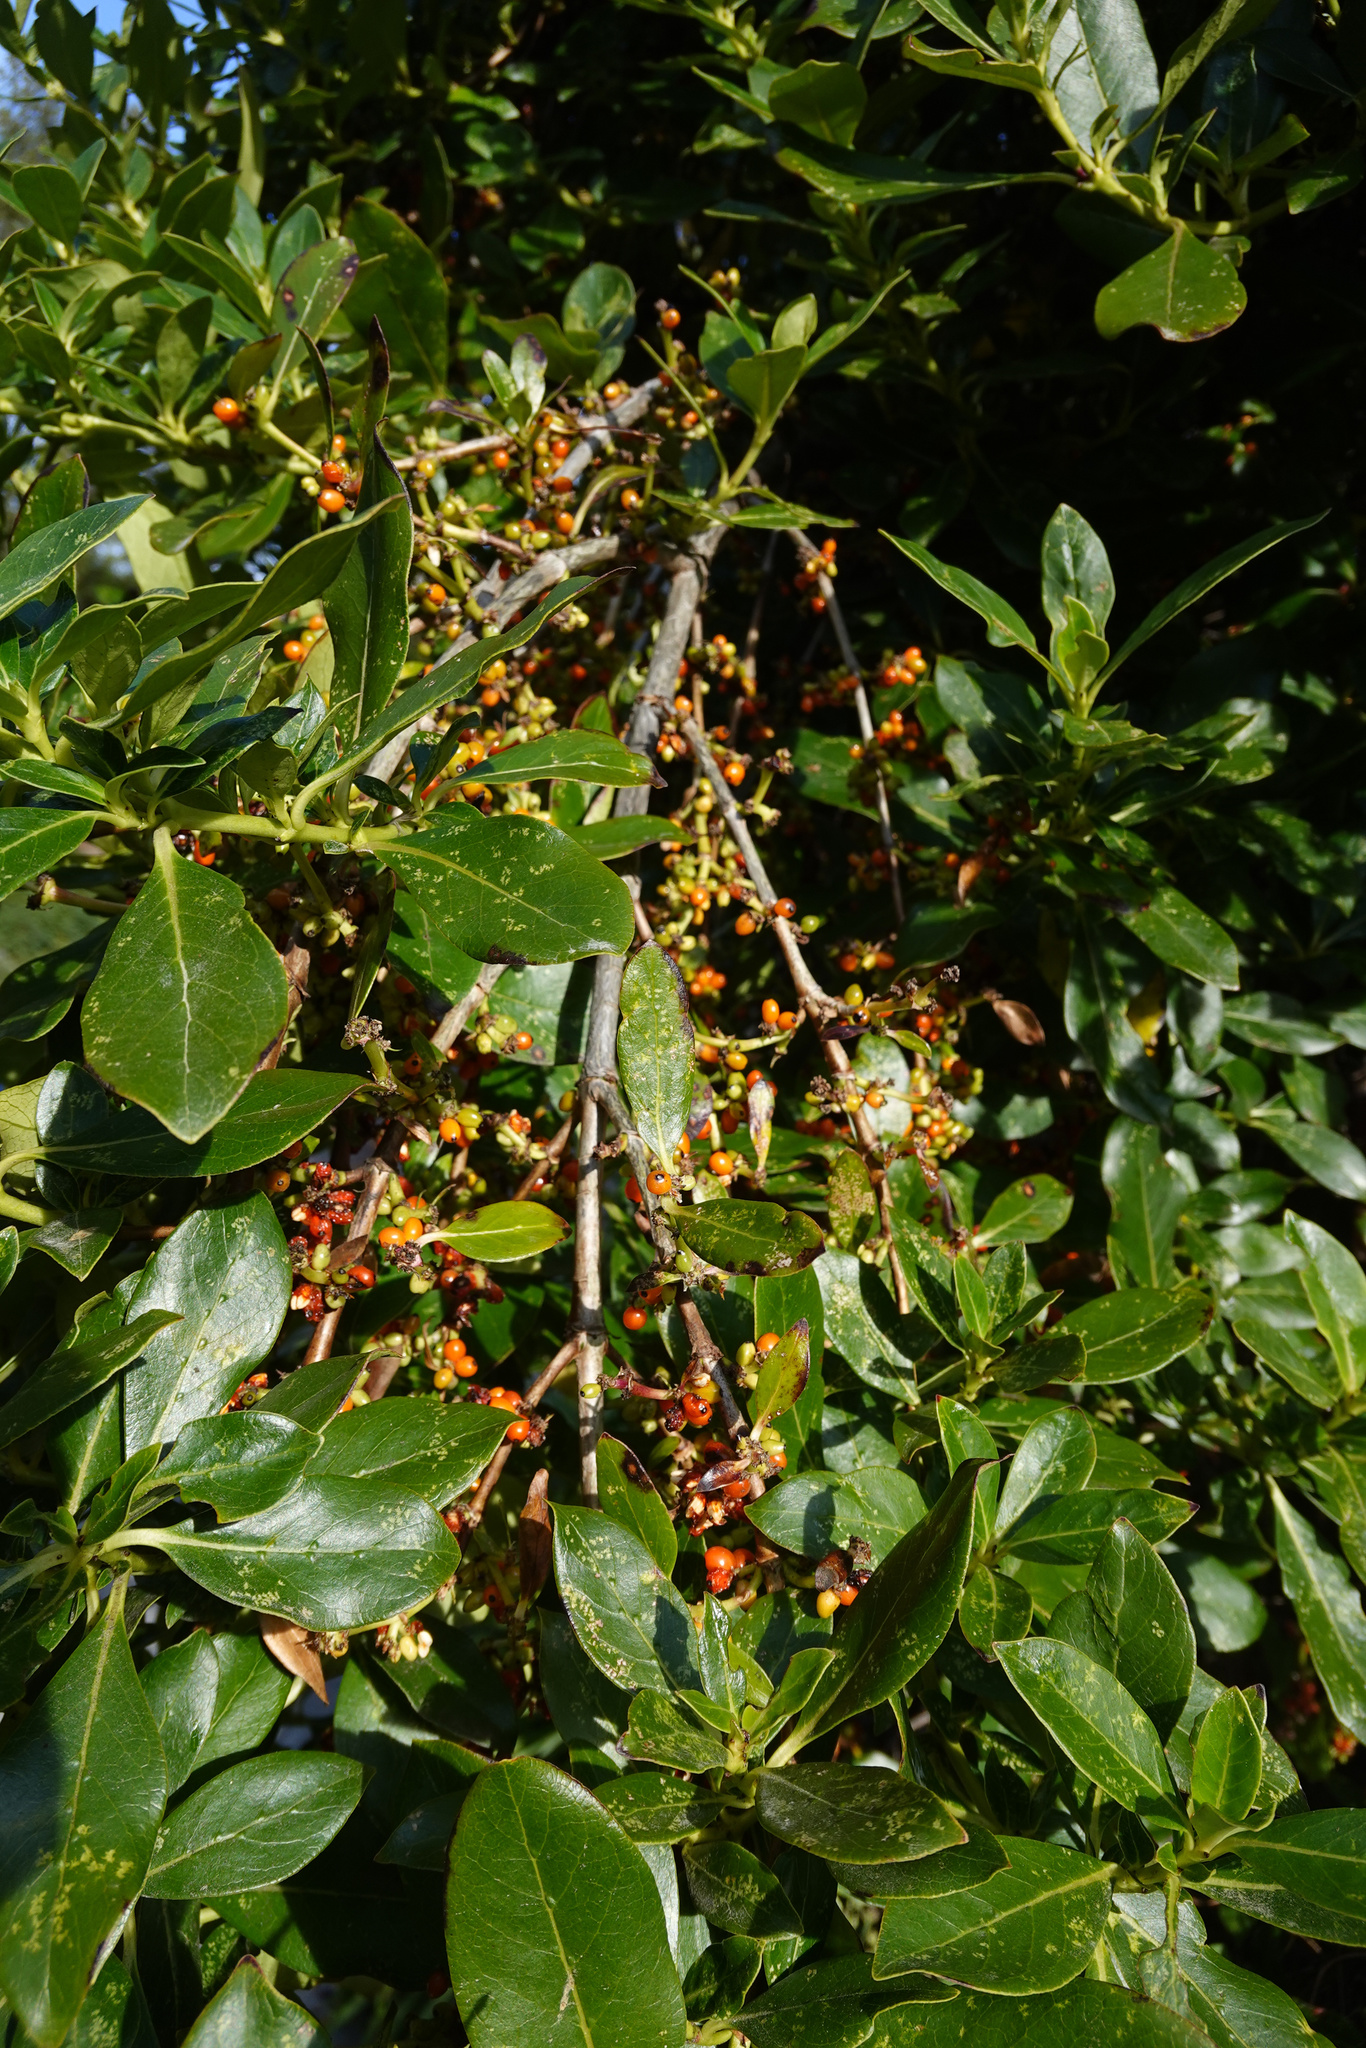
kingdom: Plantae
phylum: Tracheophyta
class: Magnoliopsida
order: Gentianales
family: Rubiaceae
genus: Coprosma
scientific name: Coprosma robusta
